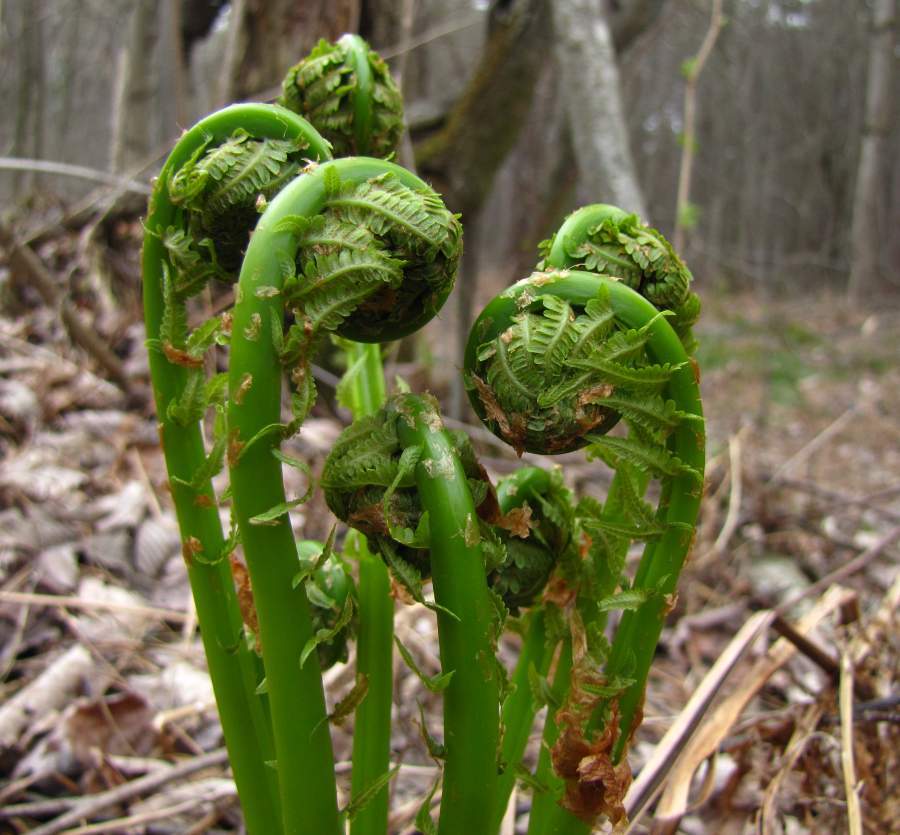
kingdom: Plantae
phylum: Tracheophyta
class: Polypodiopsida
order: Polypodiales
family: Onocleaceae
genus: Matteuccia
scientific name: Matteuccia struthiopteris
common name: Ostrich fern
